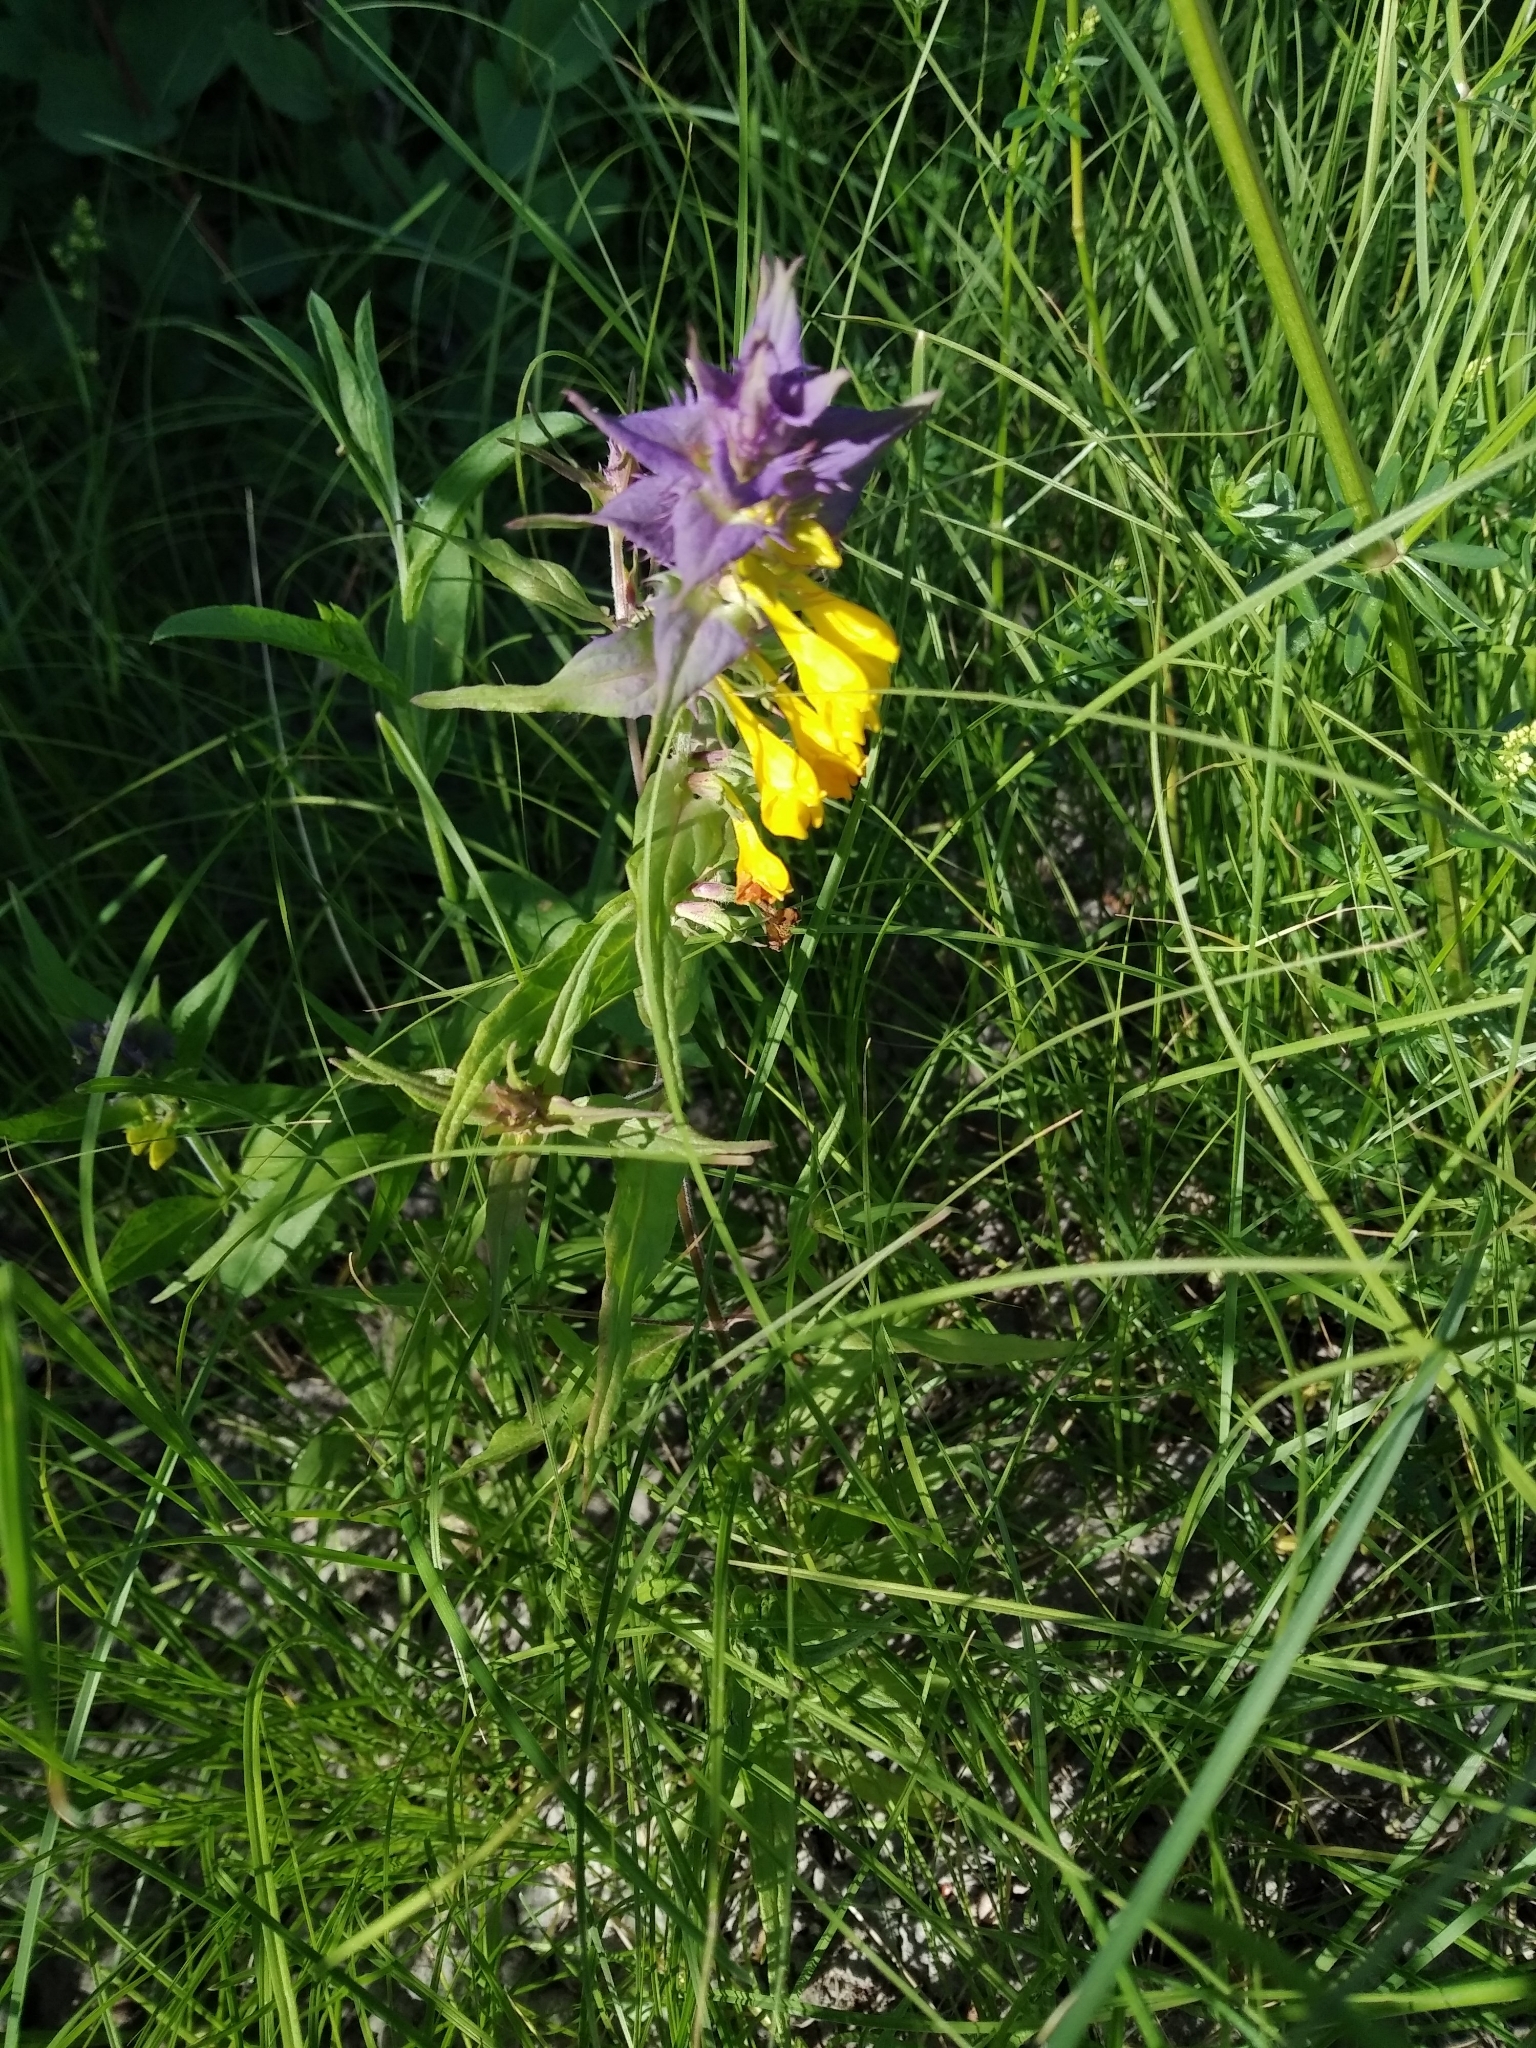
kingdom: Plantae
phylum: Tracheophyta
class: Magnoliopsida
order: Lamiales
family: Orobanchaceae
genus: Melampyrum
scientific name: Melampyrum nemorosum
